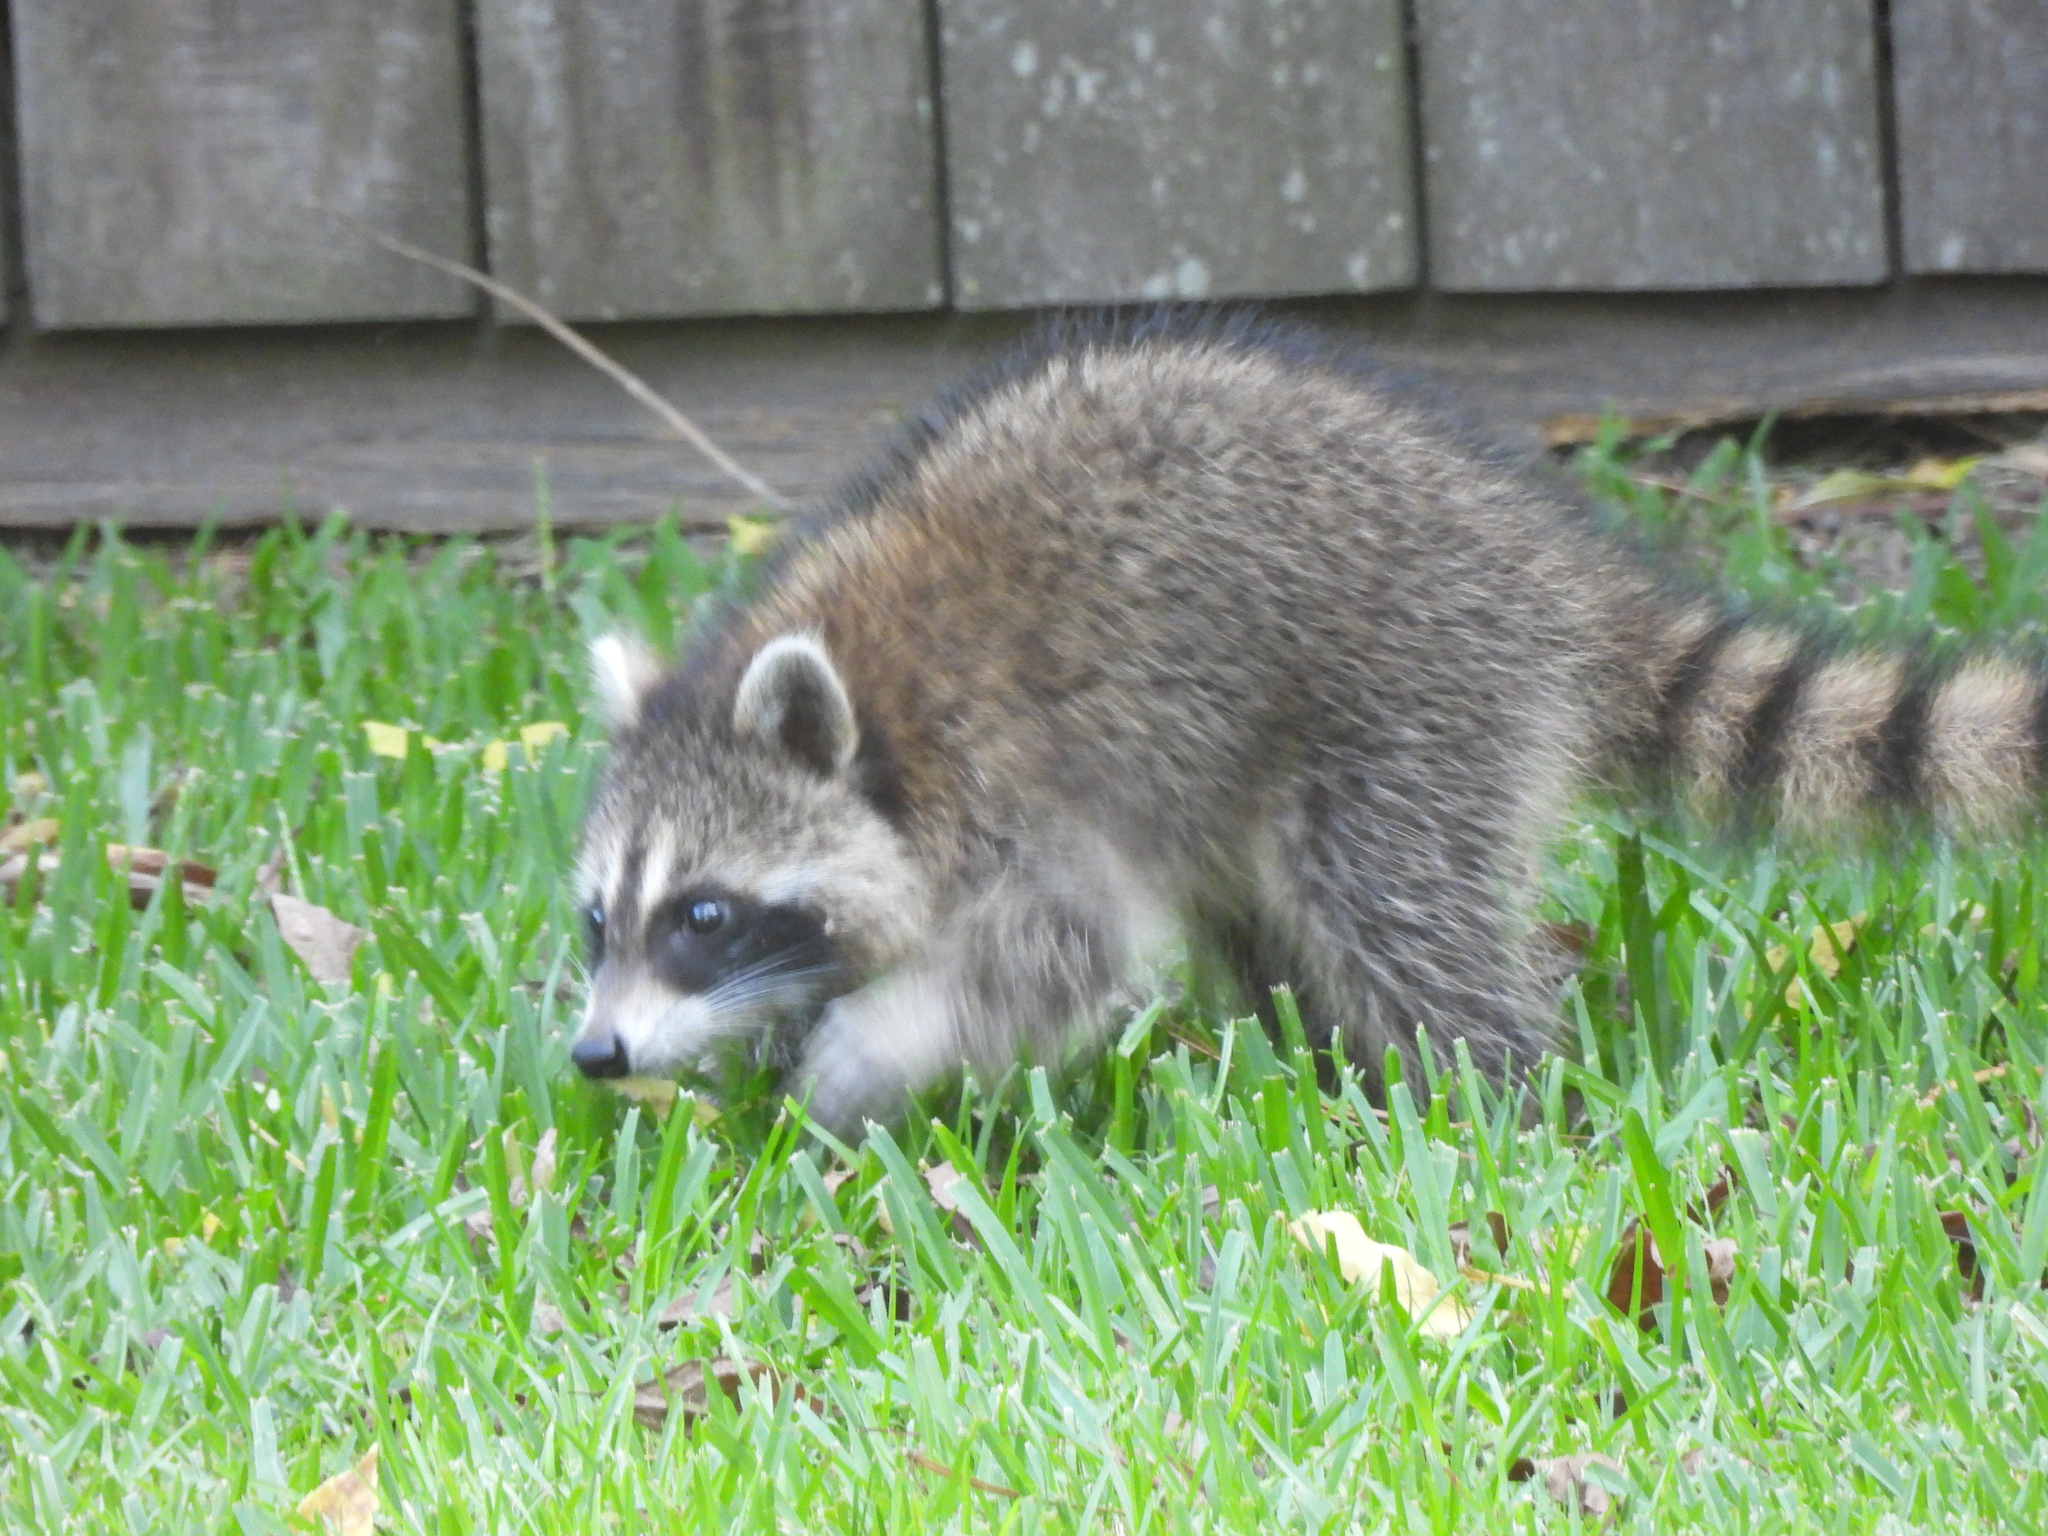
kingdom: Animalia
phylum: Chordata
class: Mammalia
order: Carnivora
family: Procyonidae
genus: Procyon
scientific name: Procyon lotor
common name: Raccoon
